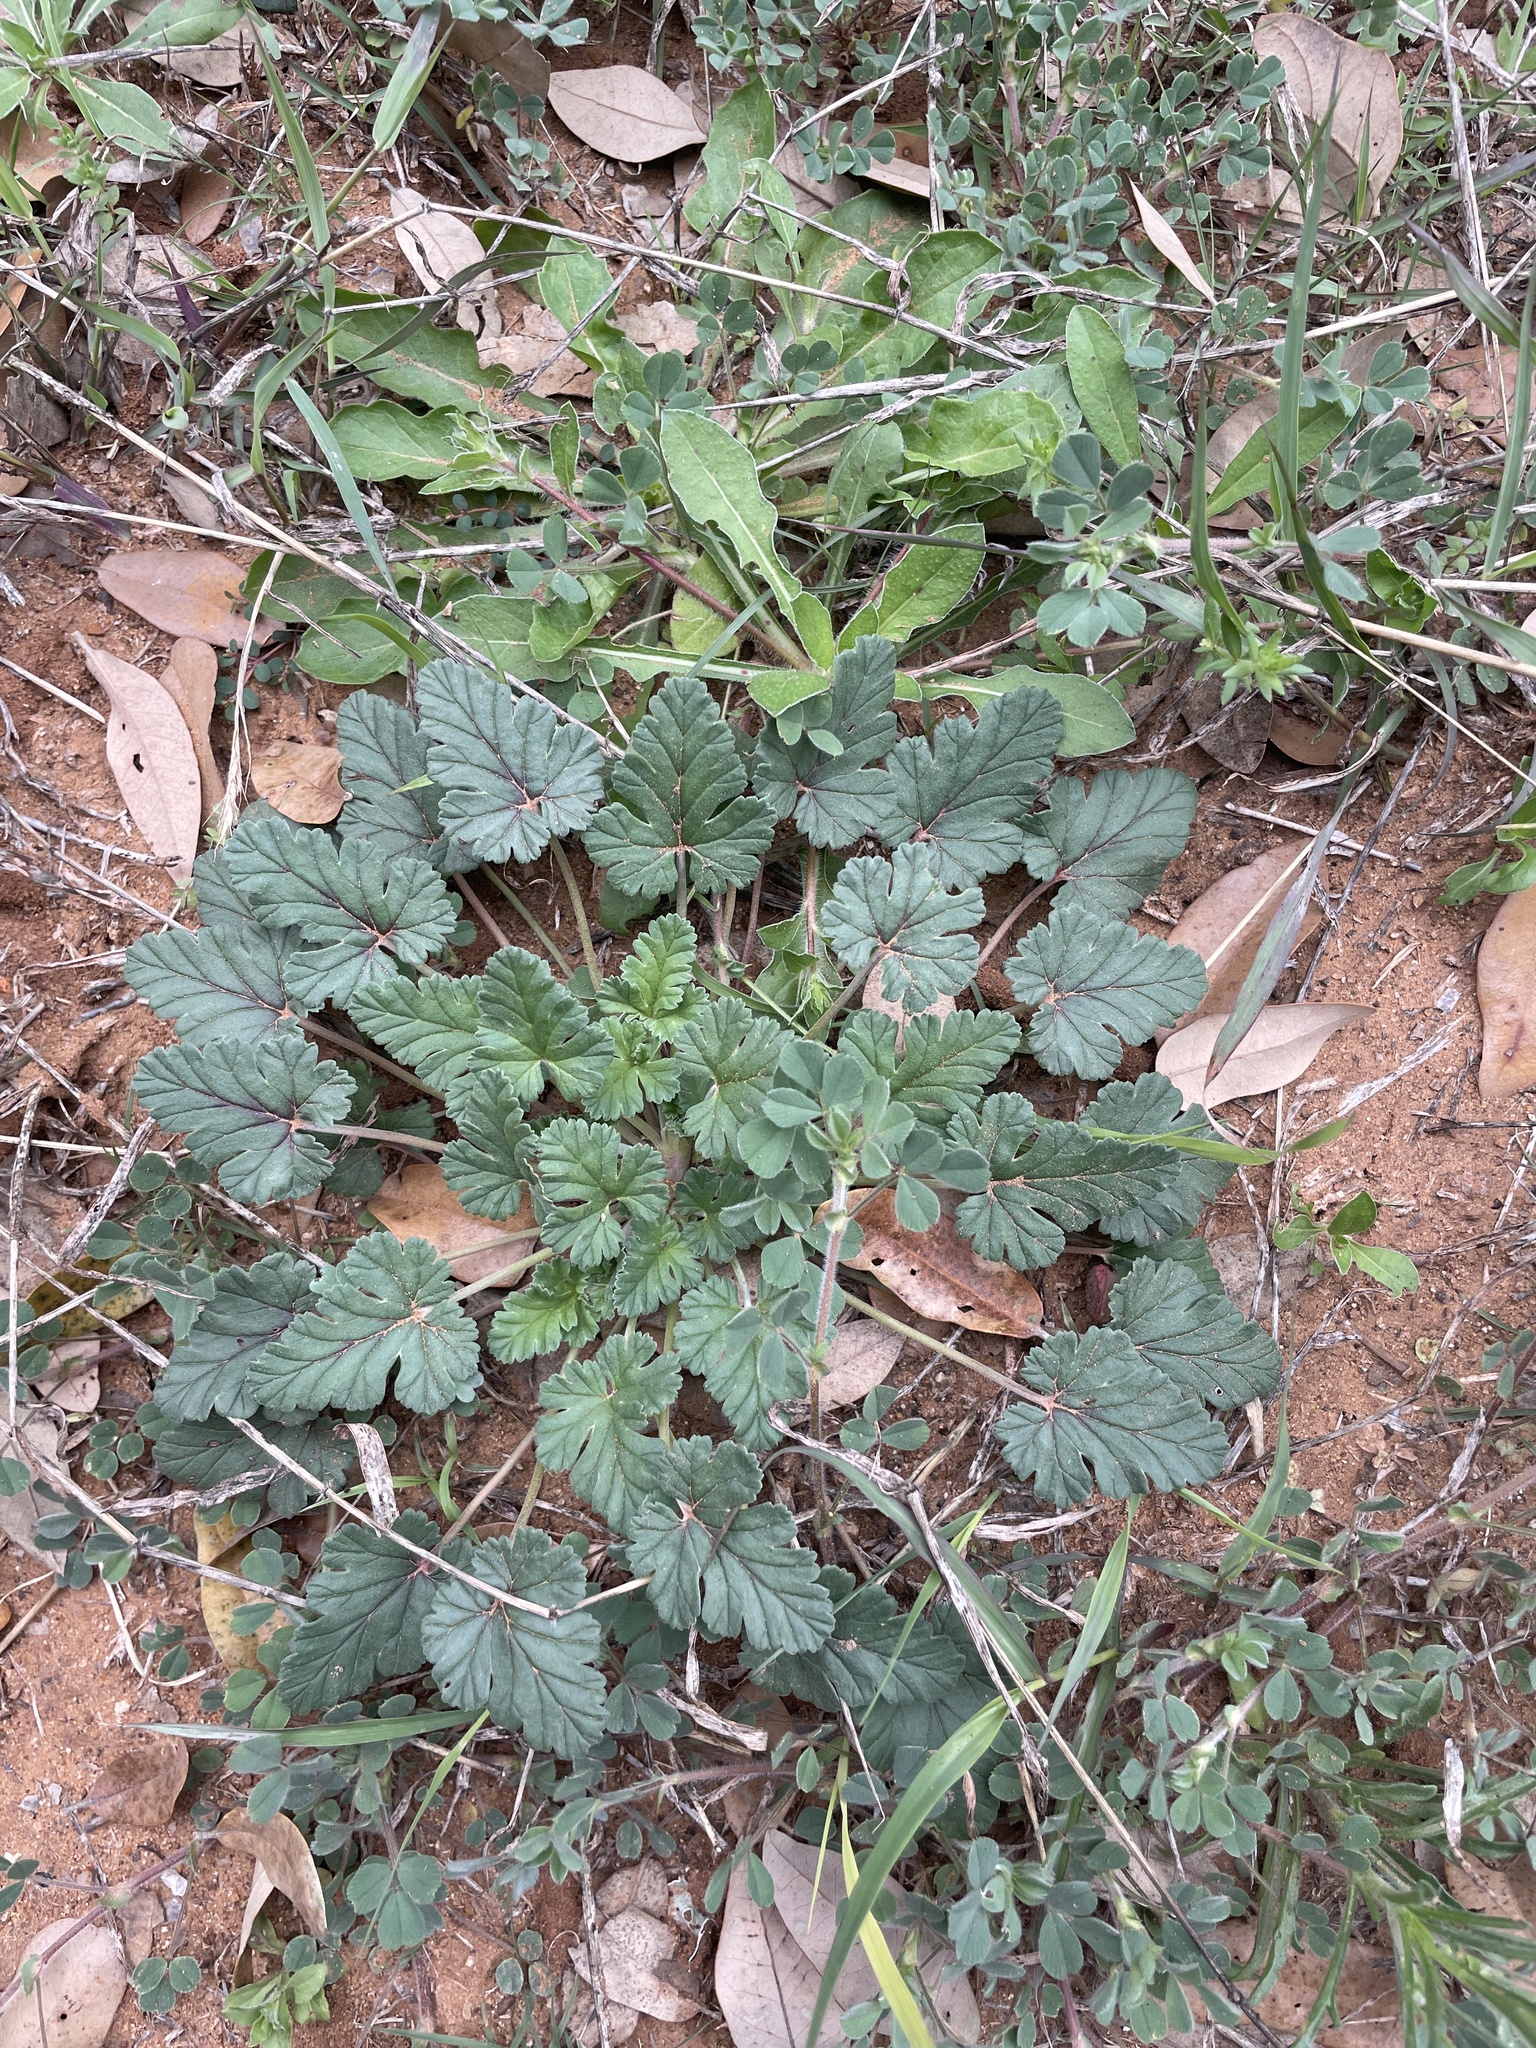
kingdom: Plantae
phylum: Tracheophyta
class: Magnoliopsida
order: Geraniales
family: Geraniaceae
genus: Erodium
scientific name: Erodium texanum
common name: Texas stork's-bill
